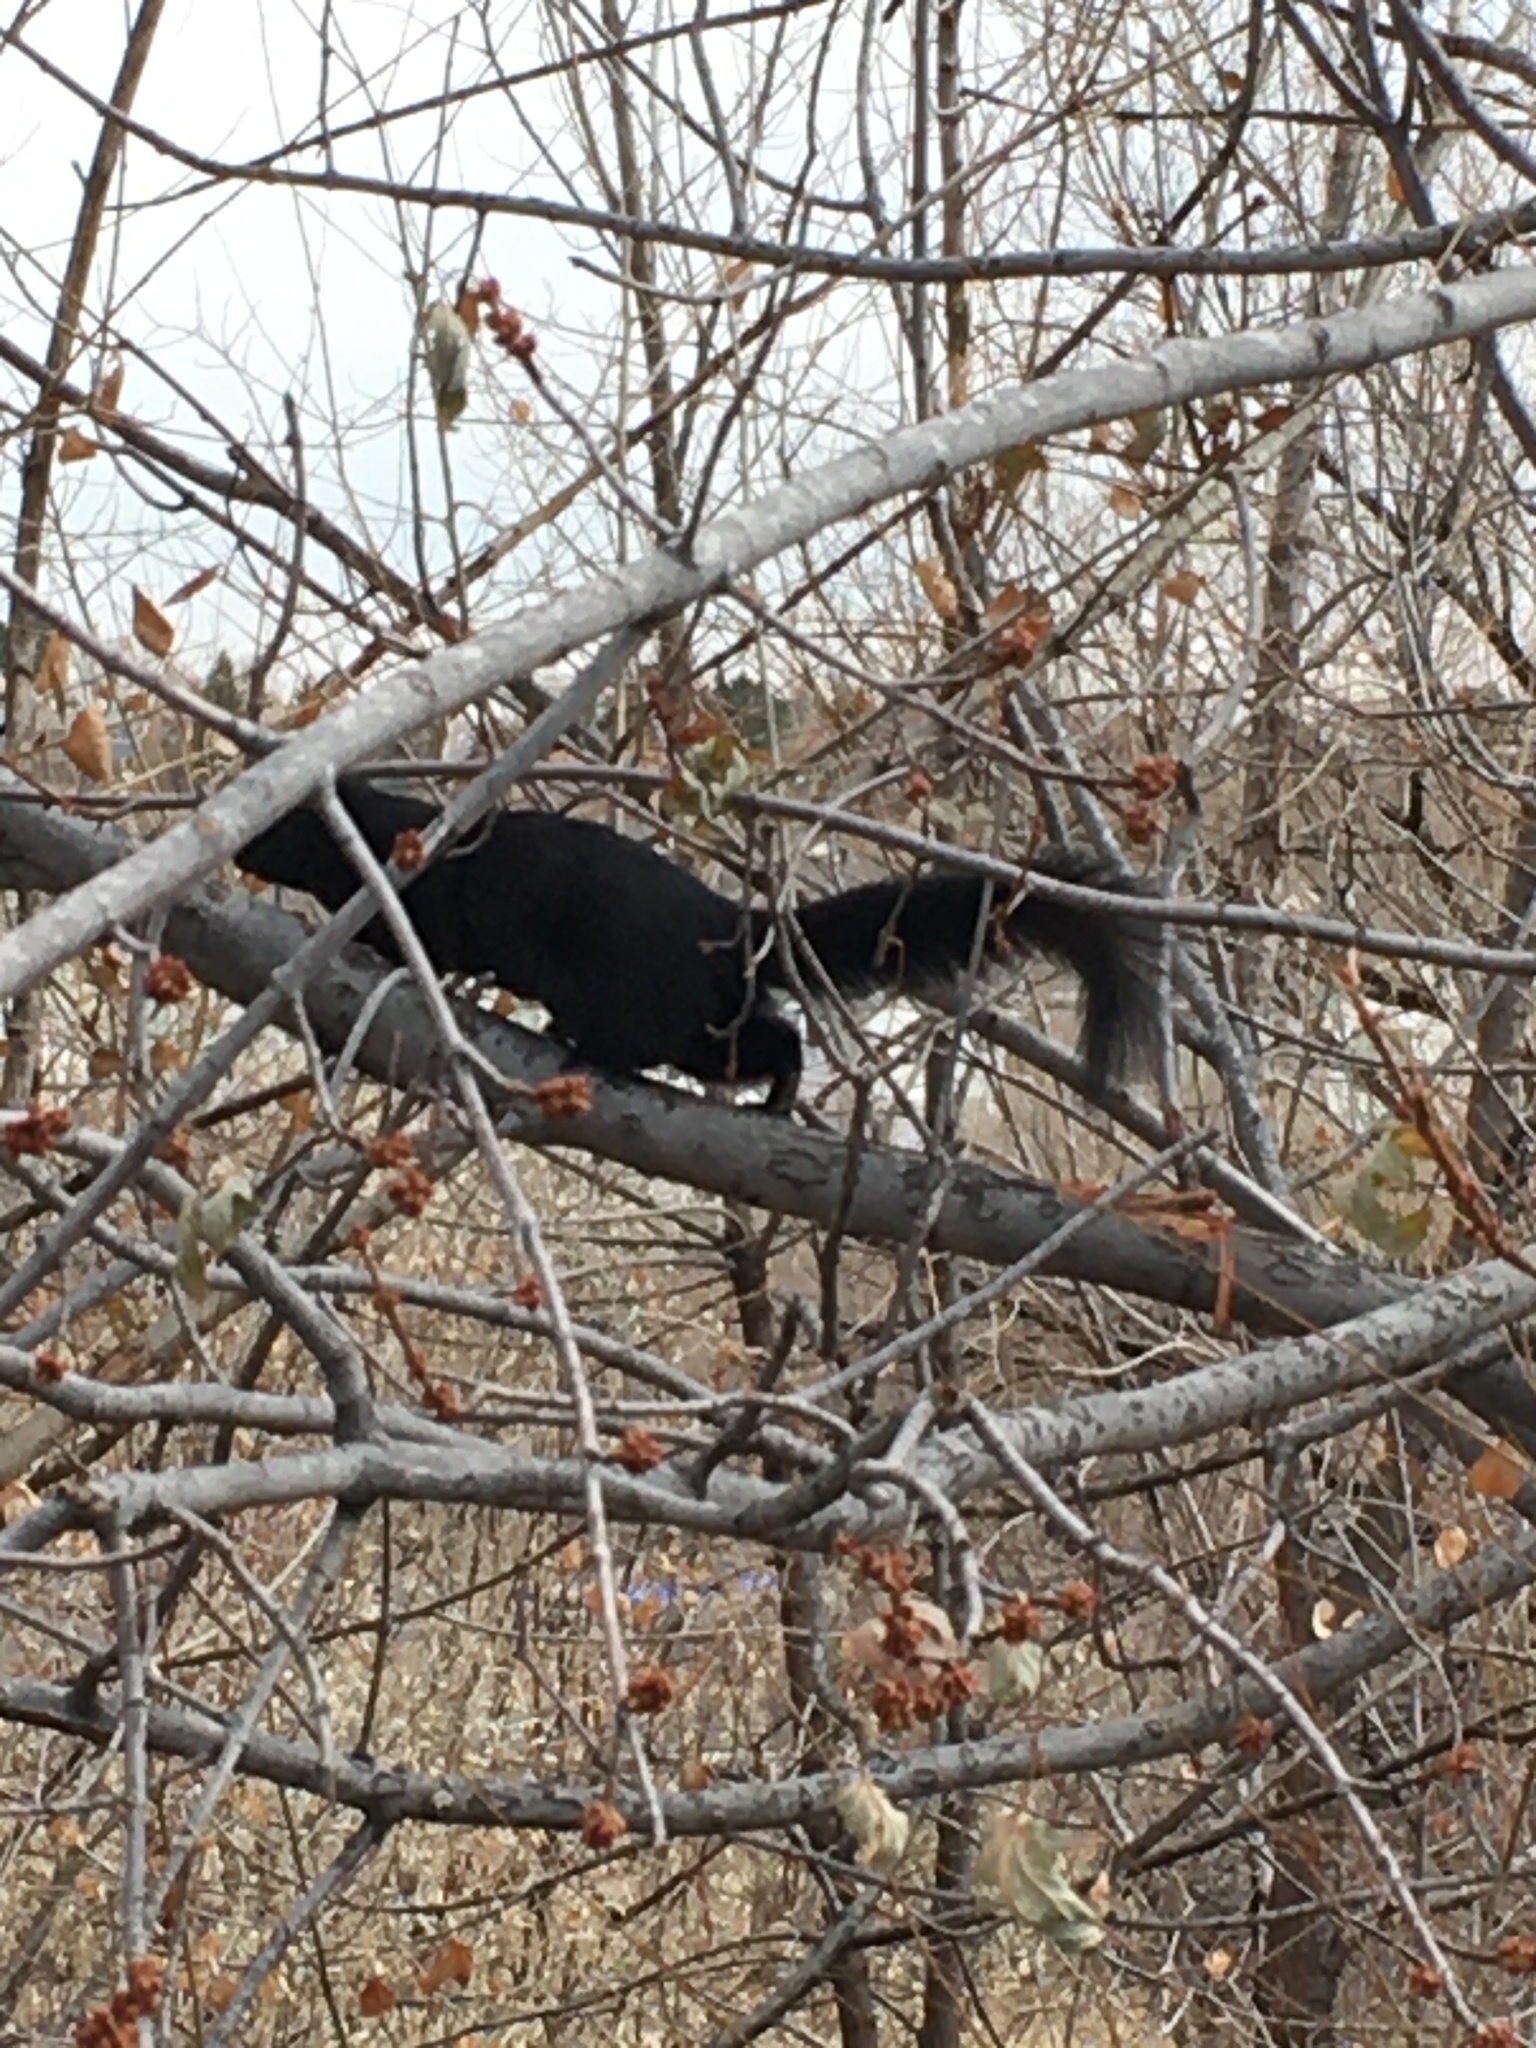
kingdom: Animalia
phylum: Chordata
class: Mammalia
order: Rodentia
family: Sciuridae
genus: Sciurus
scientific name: Sciurus niger
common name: Fox squirrel
